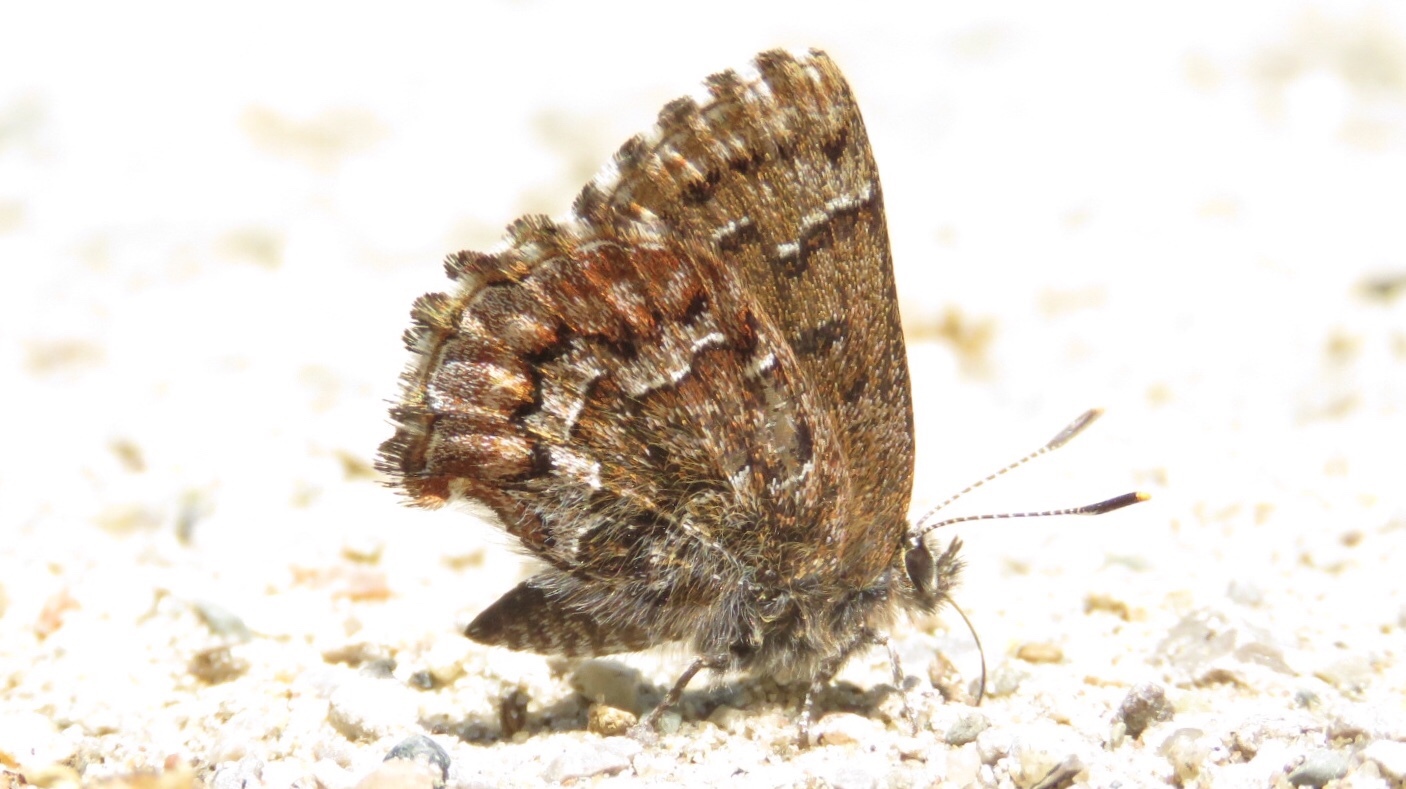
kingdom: Animalia
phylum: Arthropoda
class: Insecta
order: Lepidoptera
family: Lycaenidae
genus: Incisalia
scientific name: Incisalia niphon
